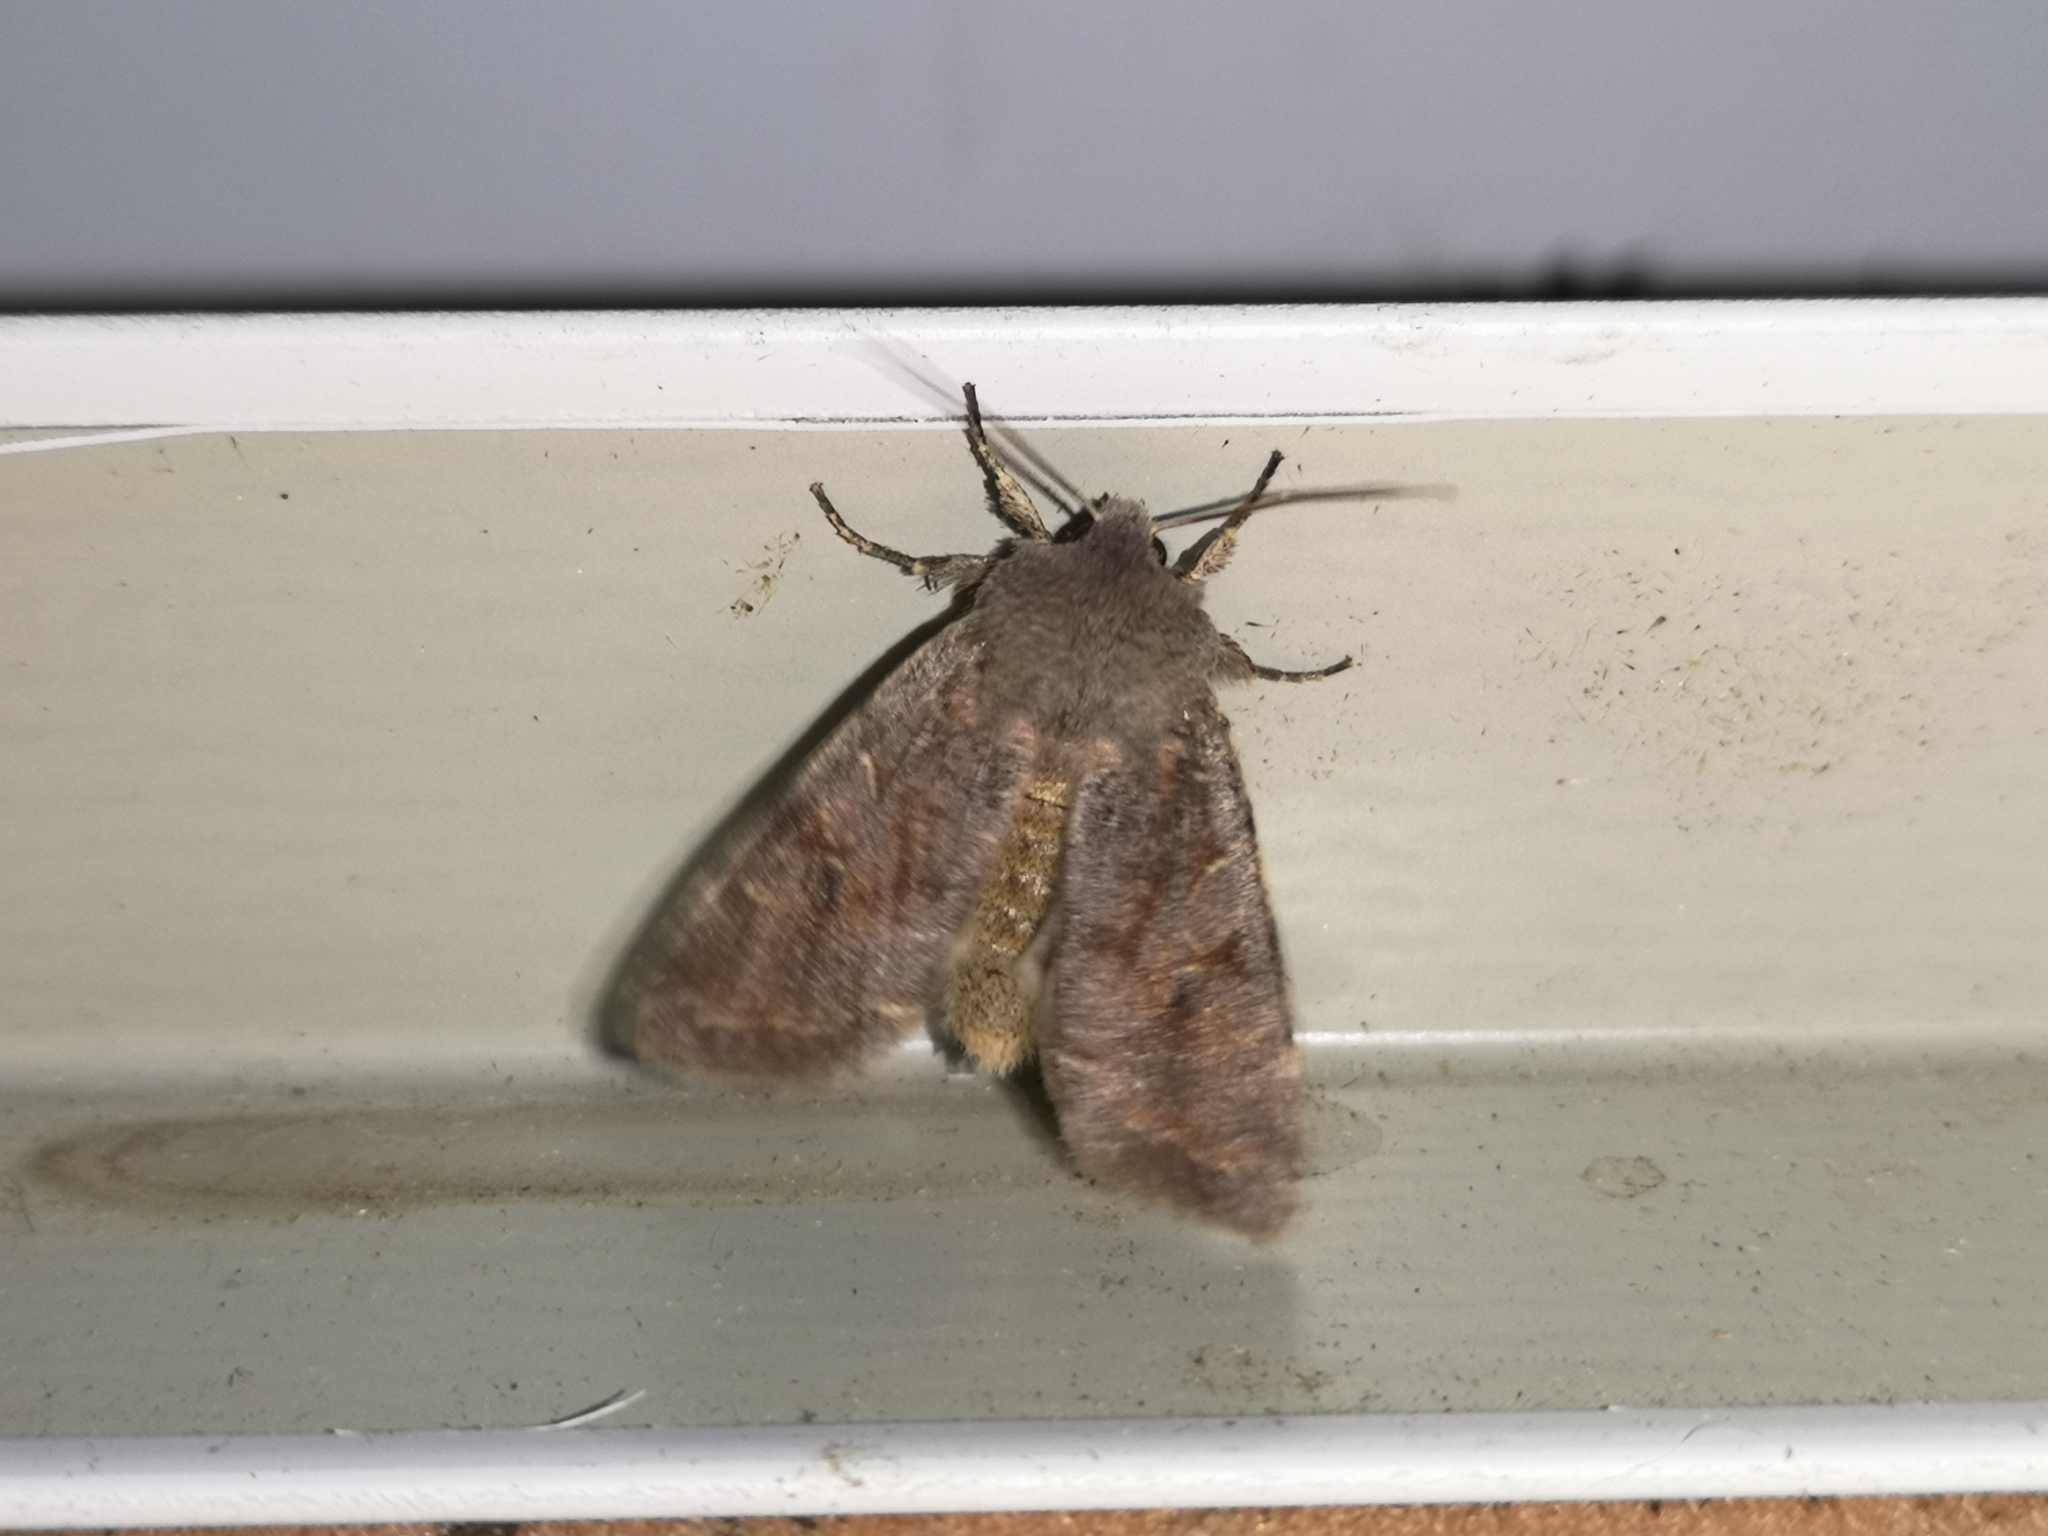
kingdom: Animalia
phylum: Arthropoda
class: Insecta
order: Lepidoptera
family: Noctuidae
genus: Orthosia
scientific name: Orthosia incerta
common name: Clouded drab
